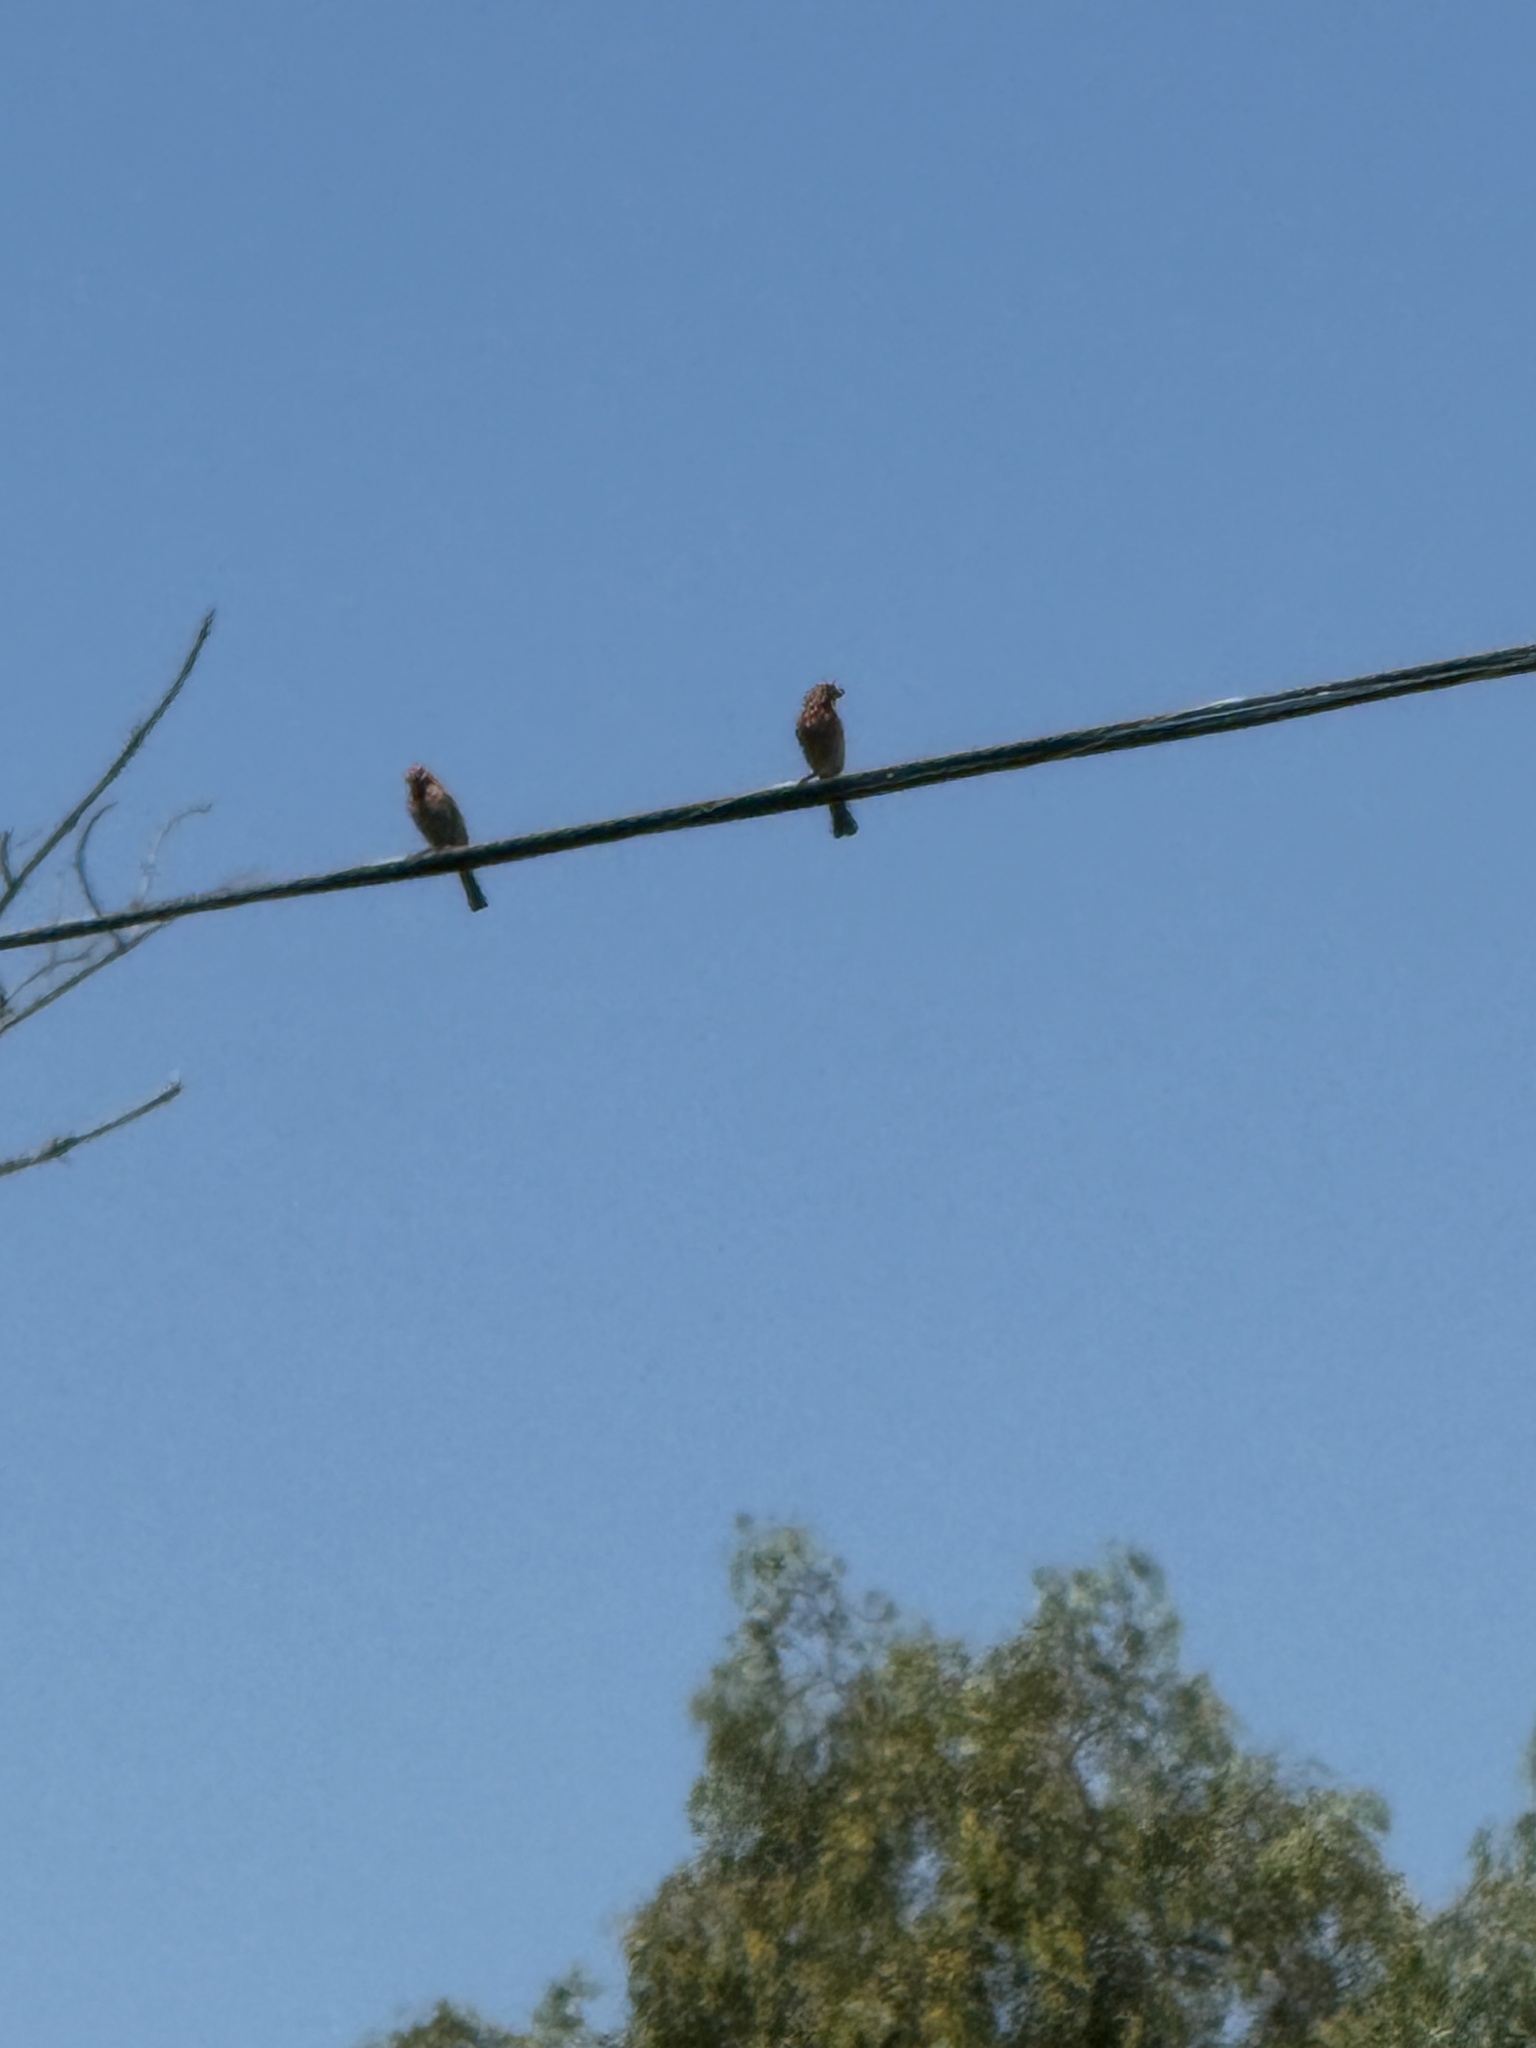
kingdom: Animalia
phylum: Chordata
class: Aves
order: Passeriformes
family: Fringillidae
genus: Haemorhous
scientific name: Haemorhous mexicanus
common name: House finch
